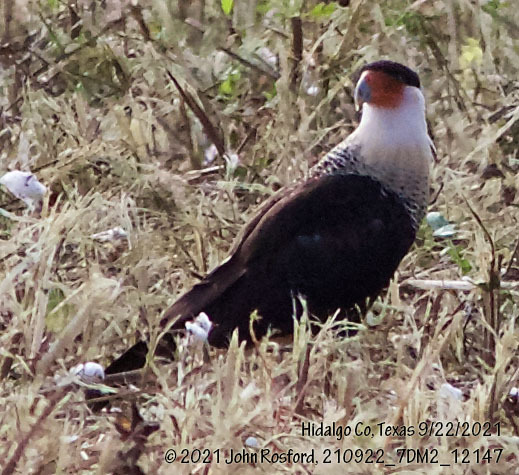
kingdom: Animalia
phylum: Chordata
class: Aves
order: Falconiformes
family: Falconidae
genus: Caracara
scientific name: Caracara plancus
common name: Southern caracara
